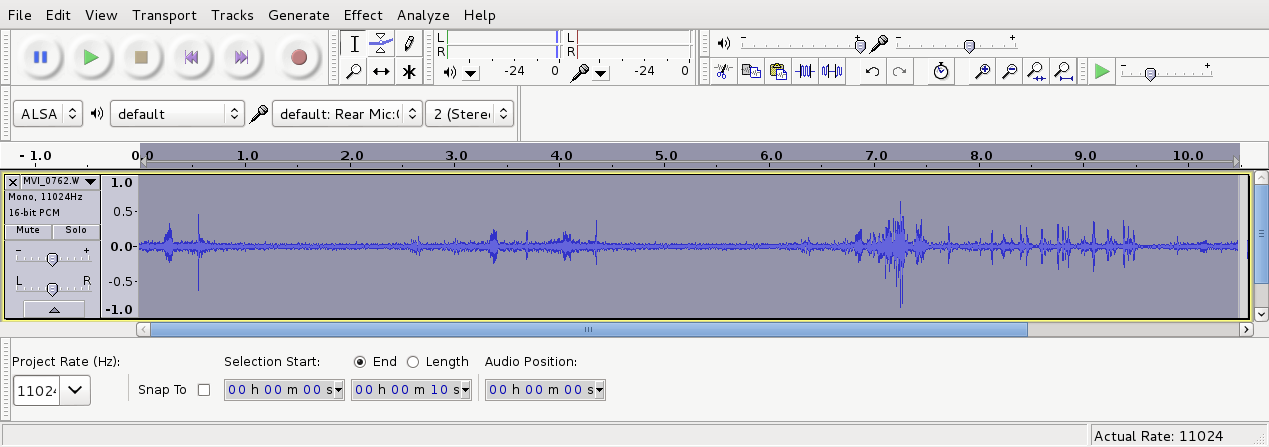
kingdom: Animalia
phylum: Chordata
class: Aves
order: Passeriformes
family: Rhipiduridae
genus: Rhipidura
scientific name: Rhipidura fuliginosa
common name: New zealand fantail
